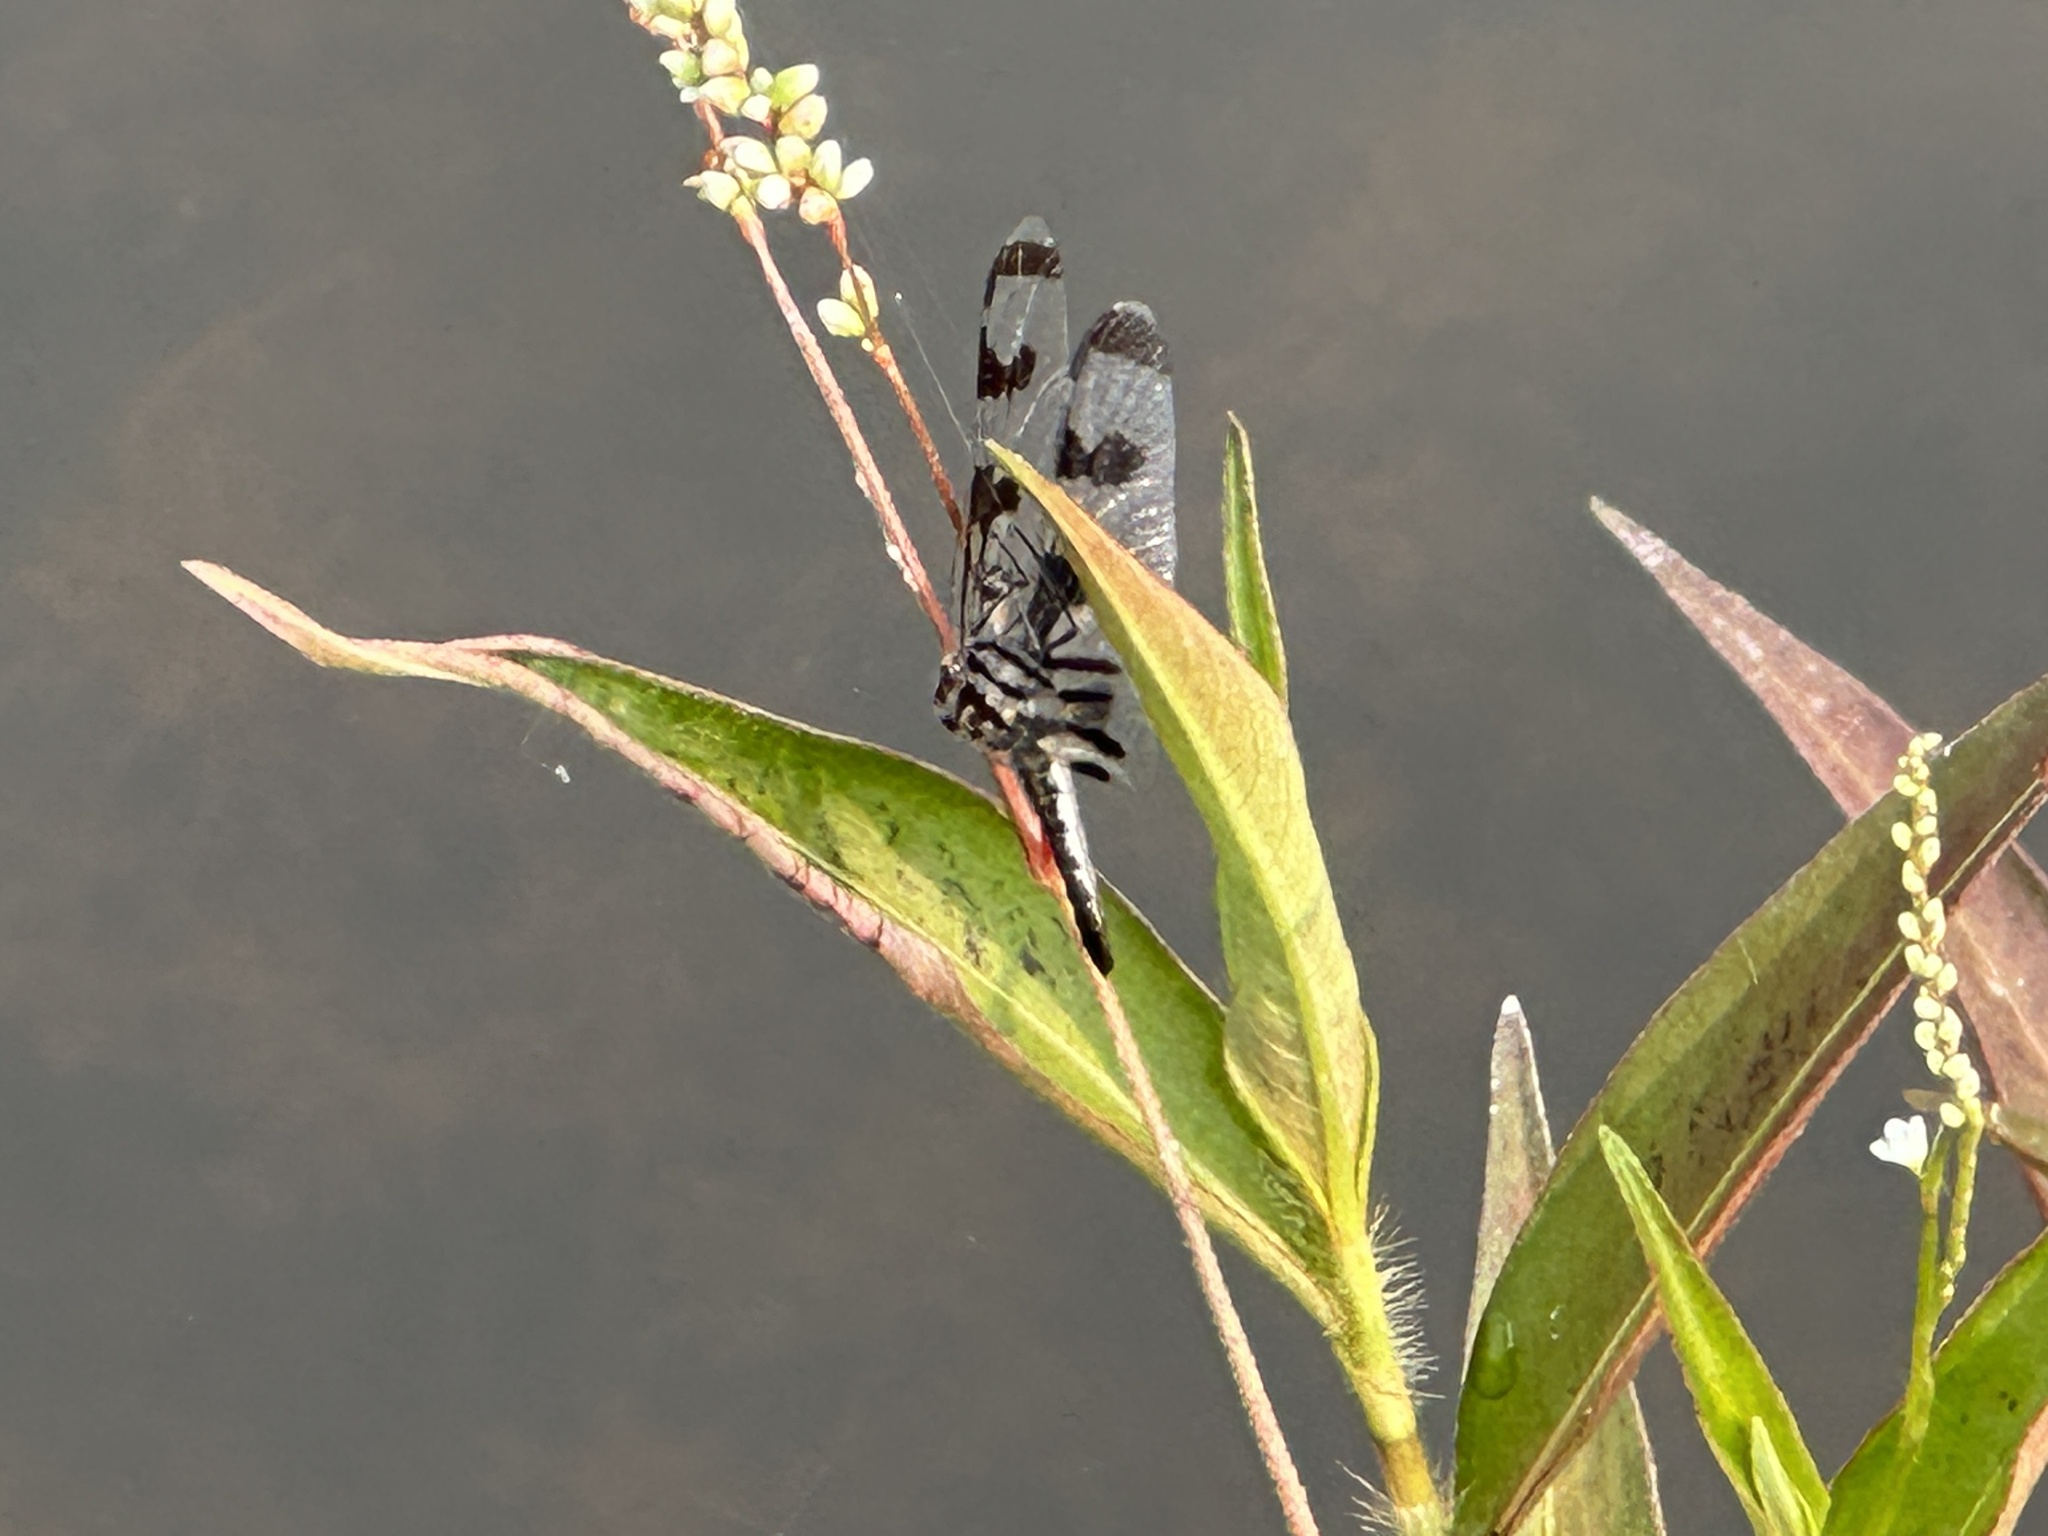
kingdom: Animalia
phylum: Arthropoda
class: Insecta
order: Odonata
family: Libellulidae
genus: Celithemis
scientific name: Celithemis fasciata
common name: Banded pennant
